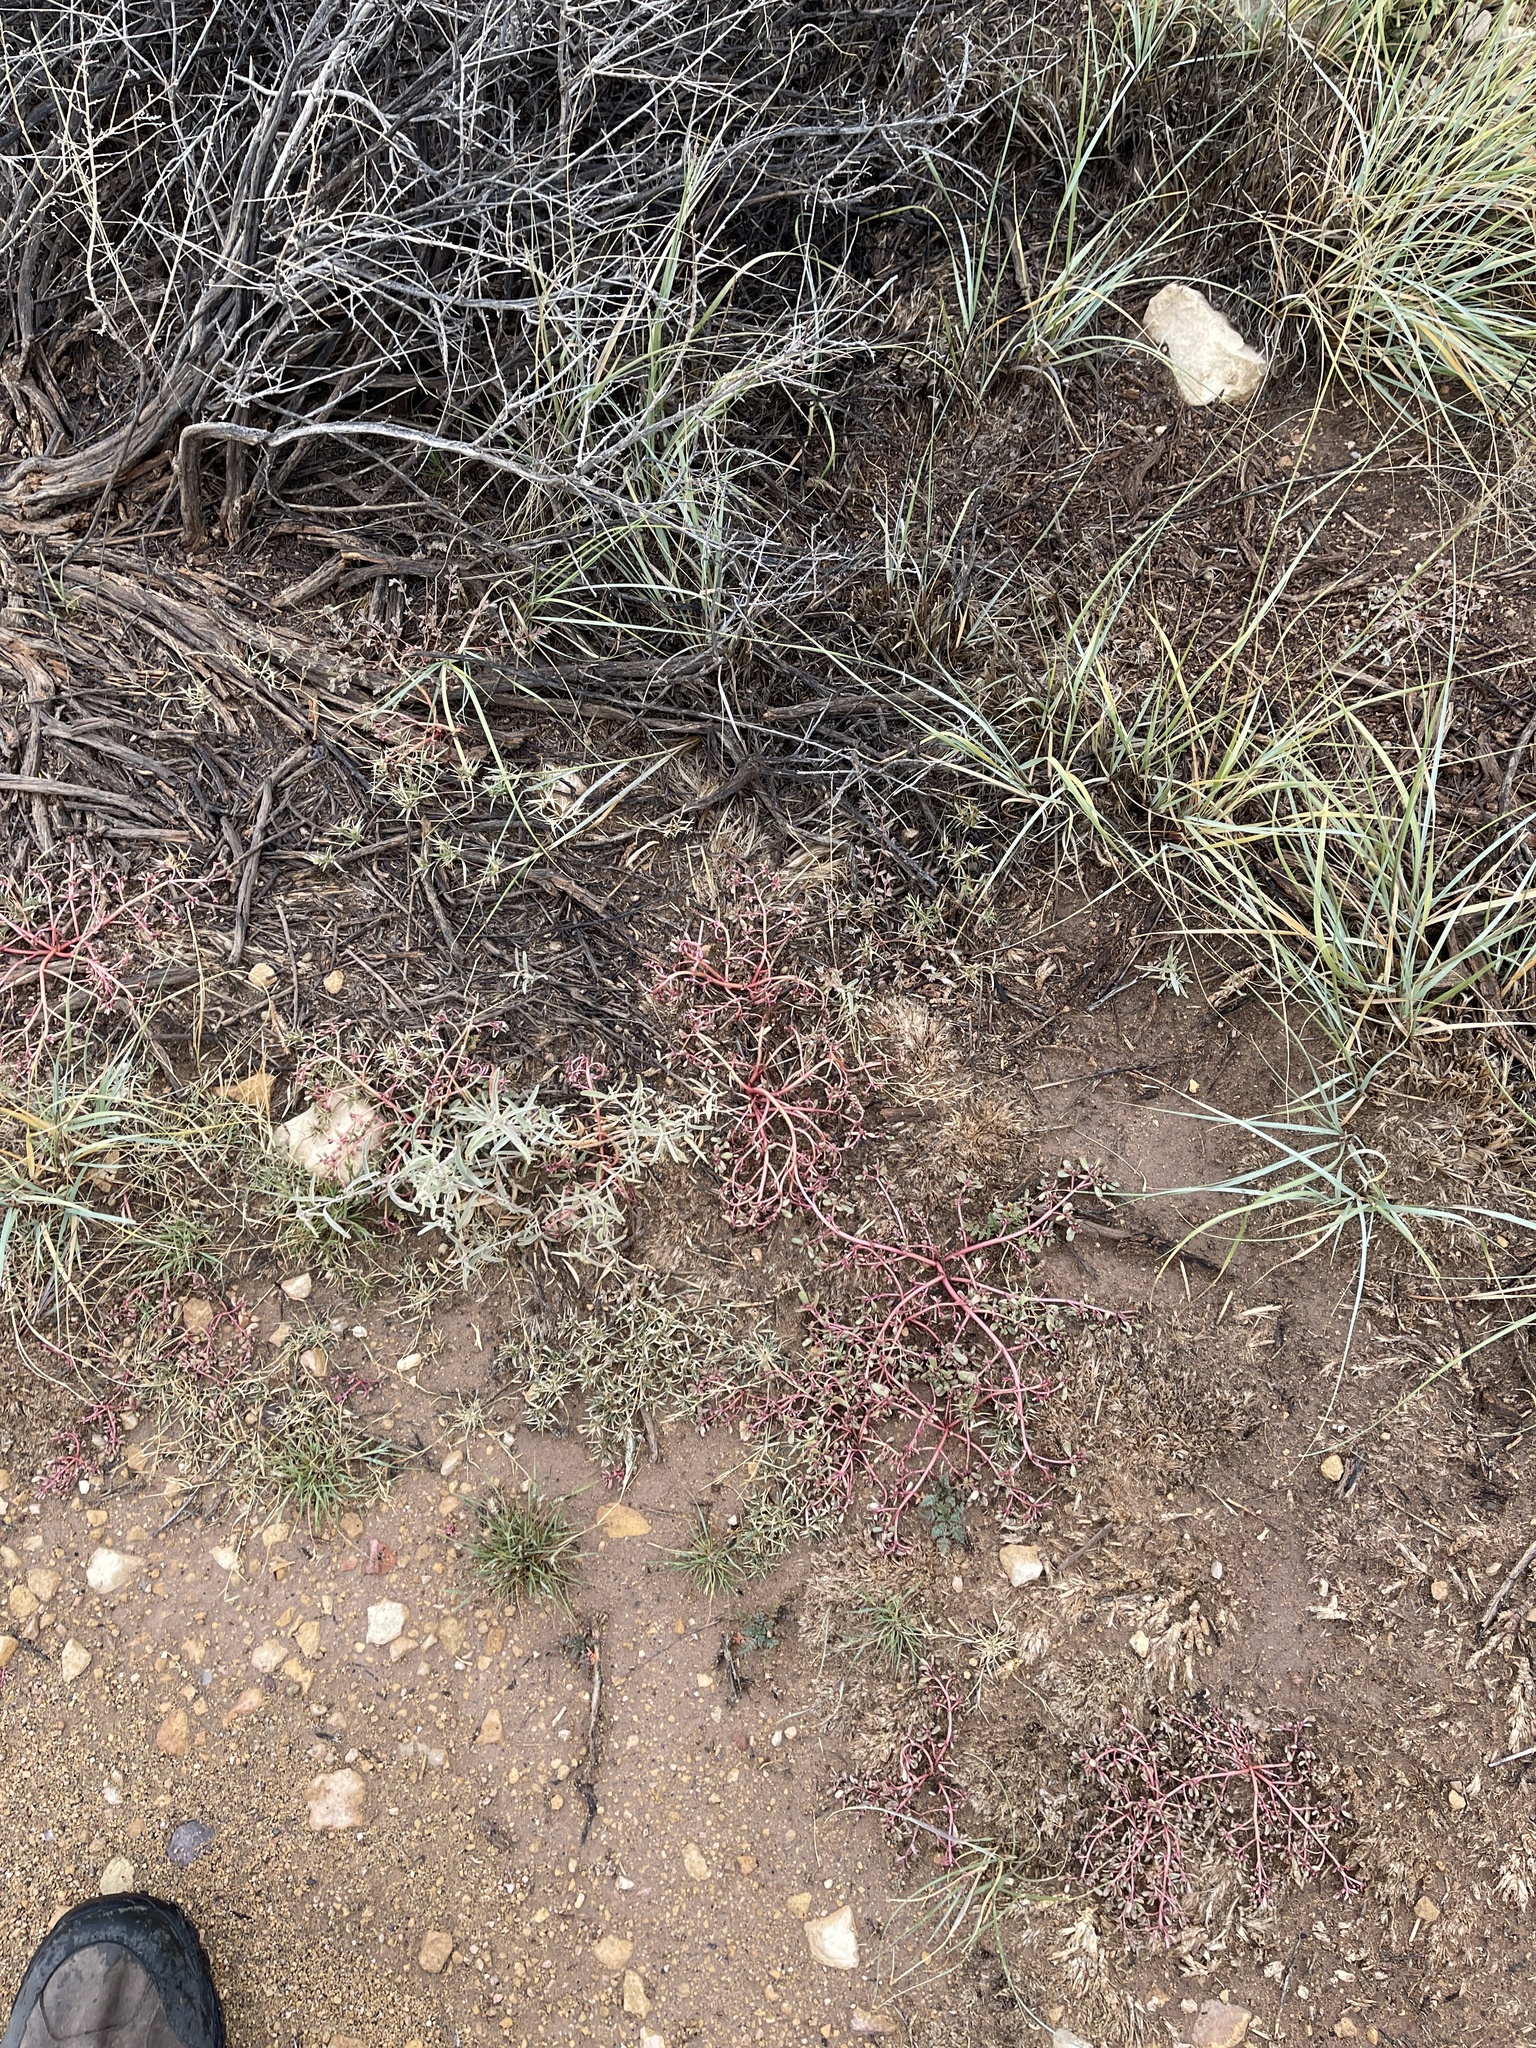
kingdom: Plantae
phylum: Tracheophyta
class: Magnoliopsida
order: Caryophyllales
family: Portulacaceae
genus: Portulaca
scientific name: Portulaca oleracea
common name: Common purslane
